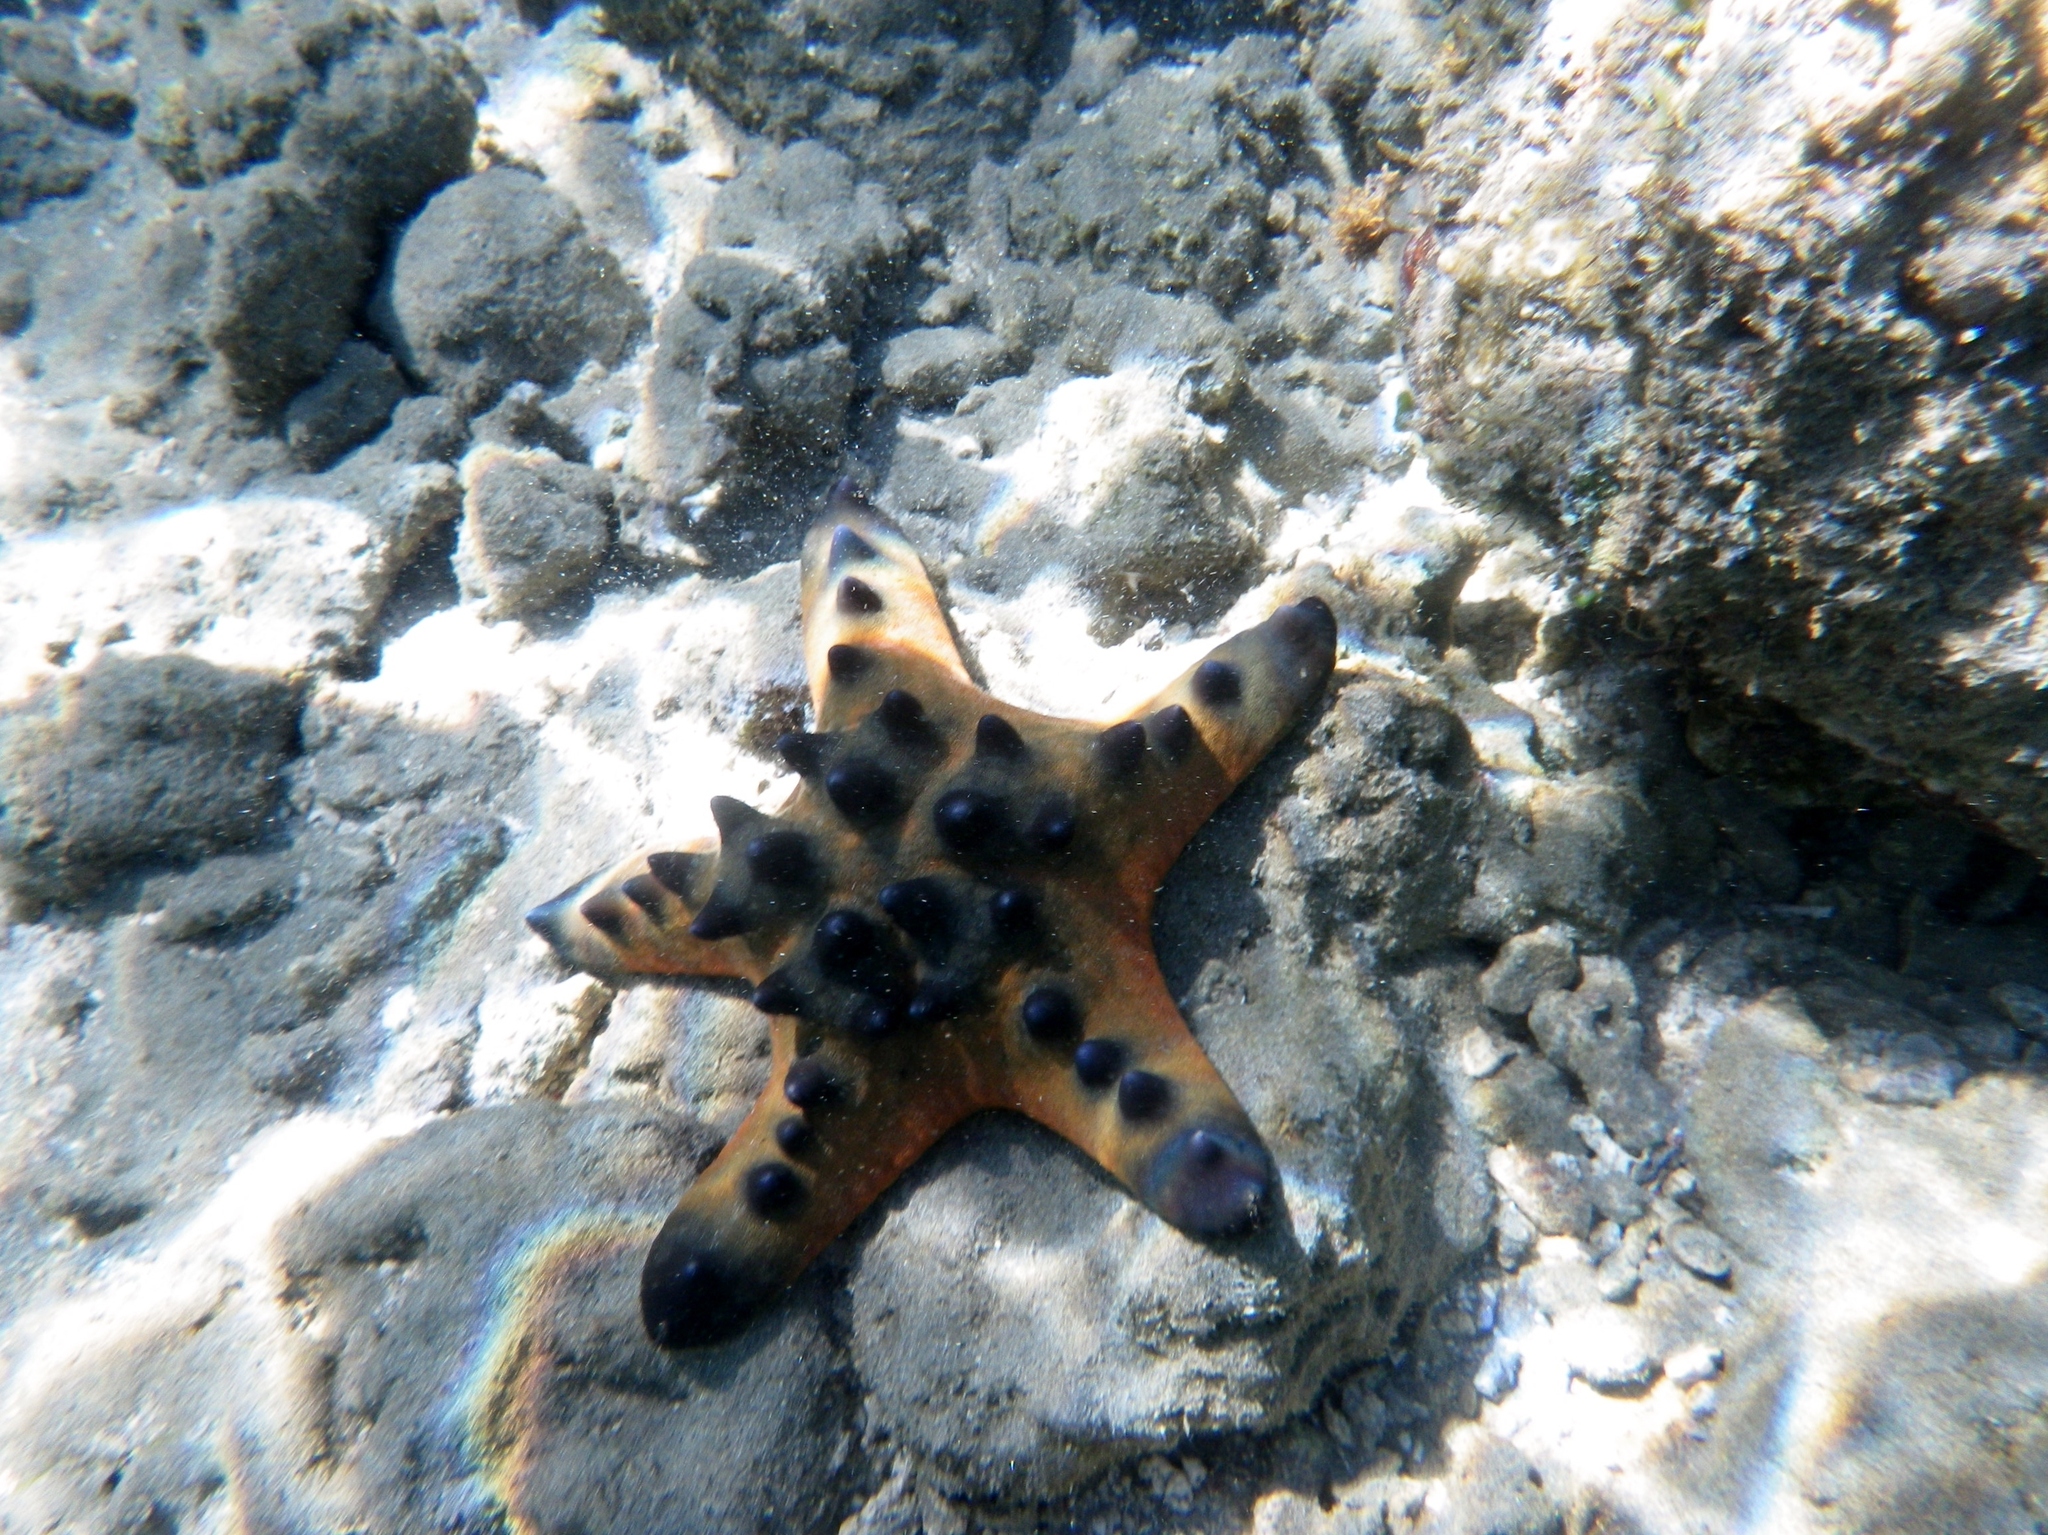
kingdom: Animalia
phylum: Echinodermata
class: Asteroidea
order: Valvatida
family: Oreasteridae
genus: Protoreaster
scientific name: Protoreaster nodosus
